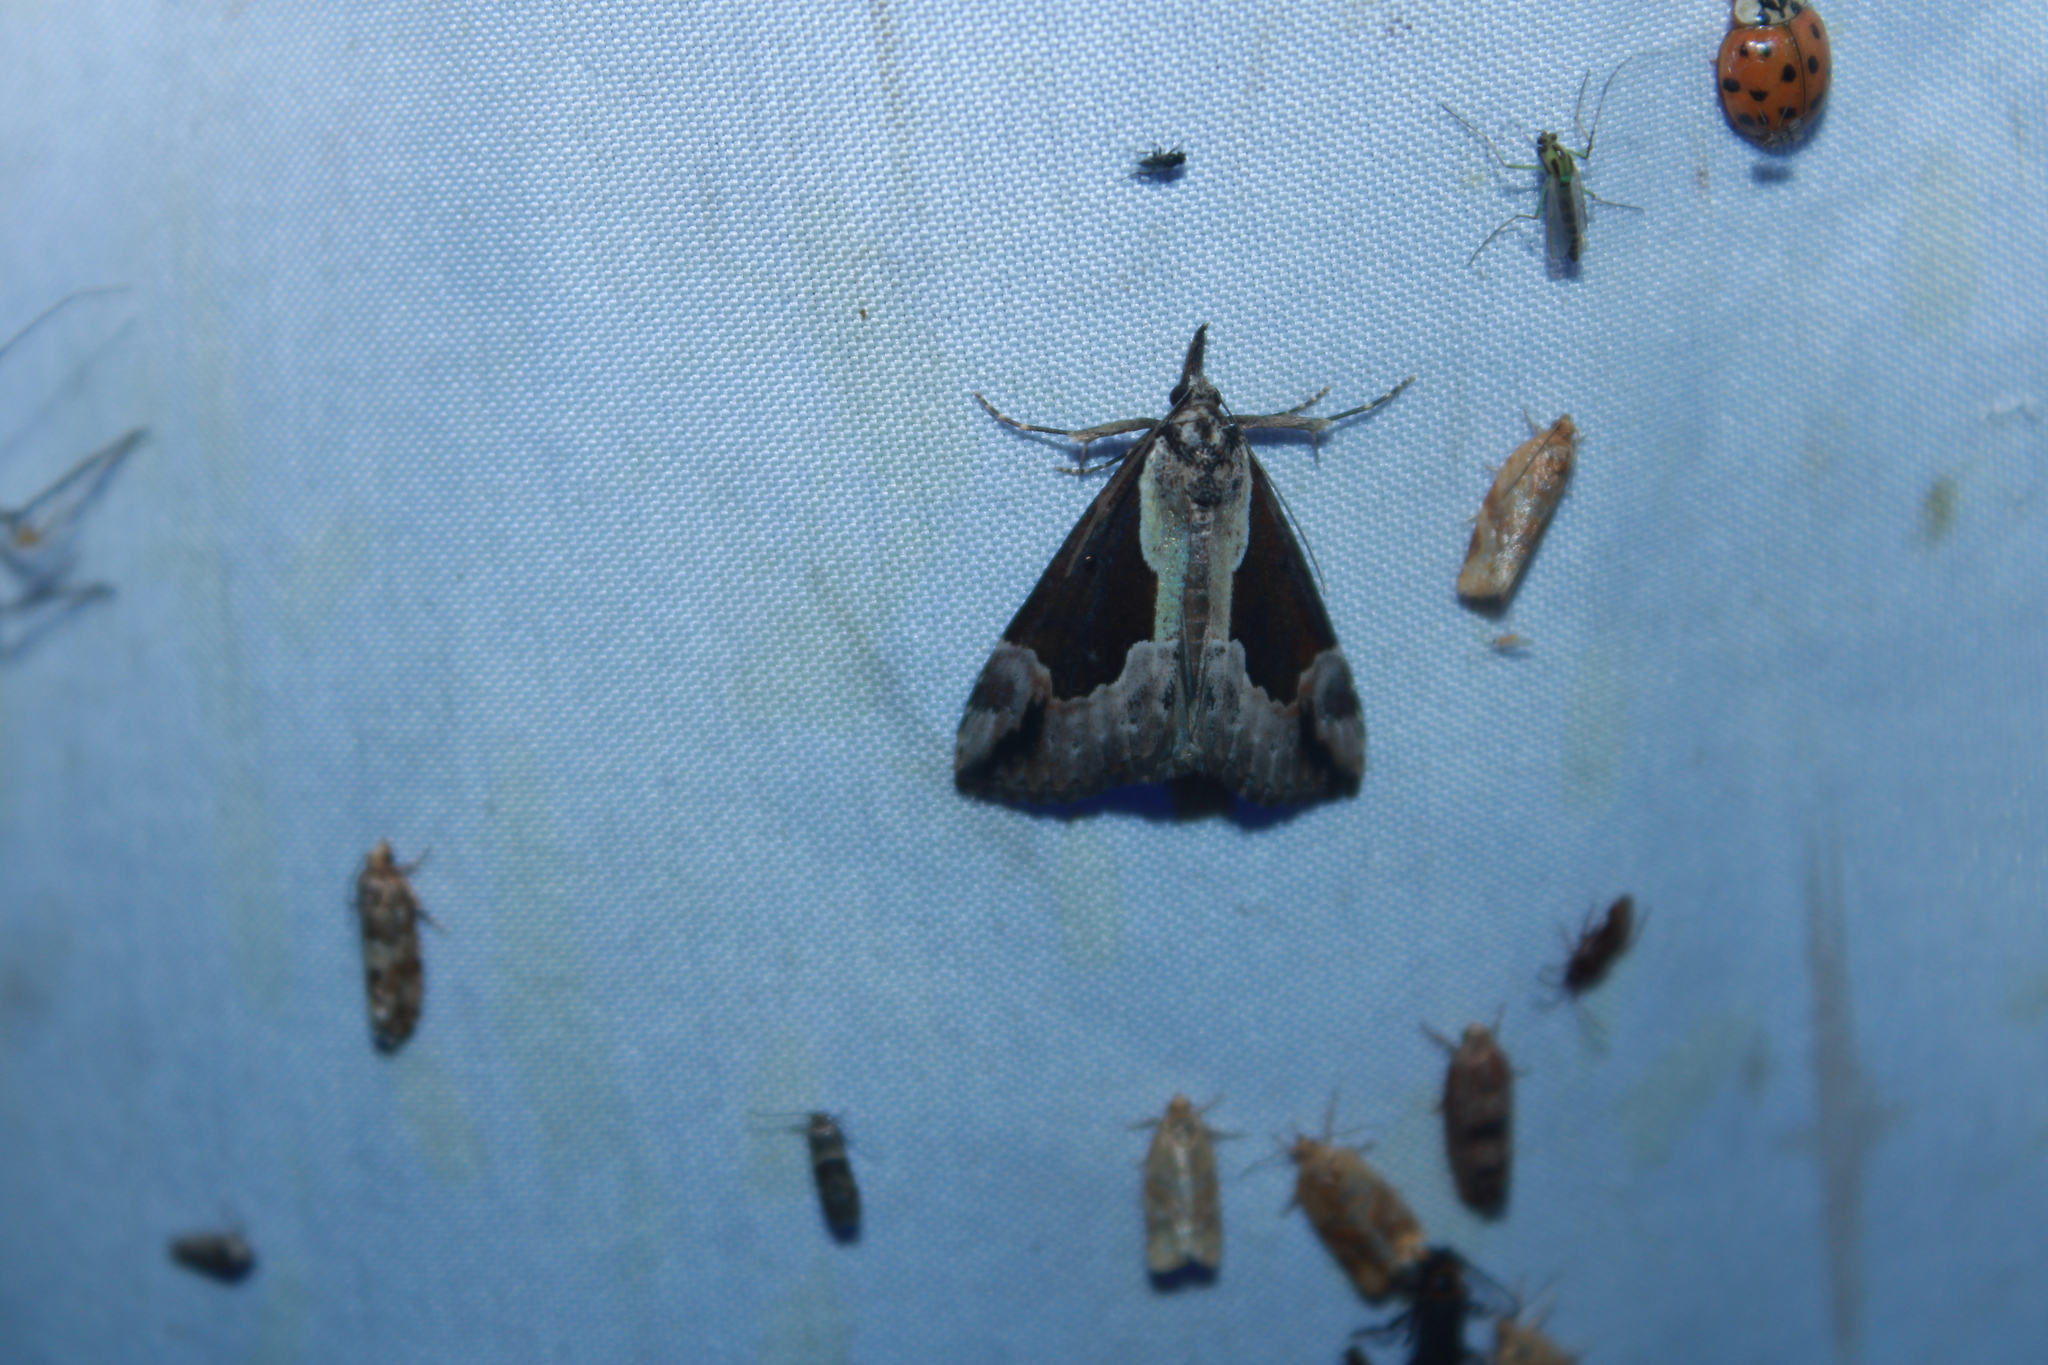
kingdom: Animalia
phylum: Arthropoda
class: Insecta
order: Lepidoptera
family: Erebidae
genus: Hypena
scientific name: Hypena baltimoralis
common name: Baltimore snout
